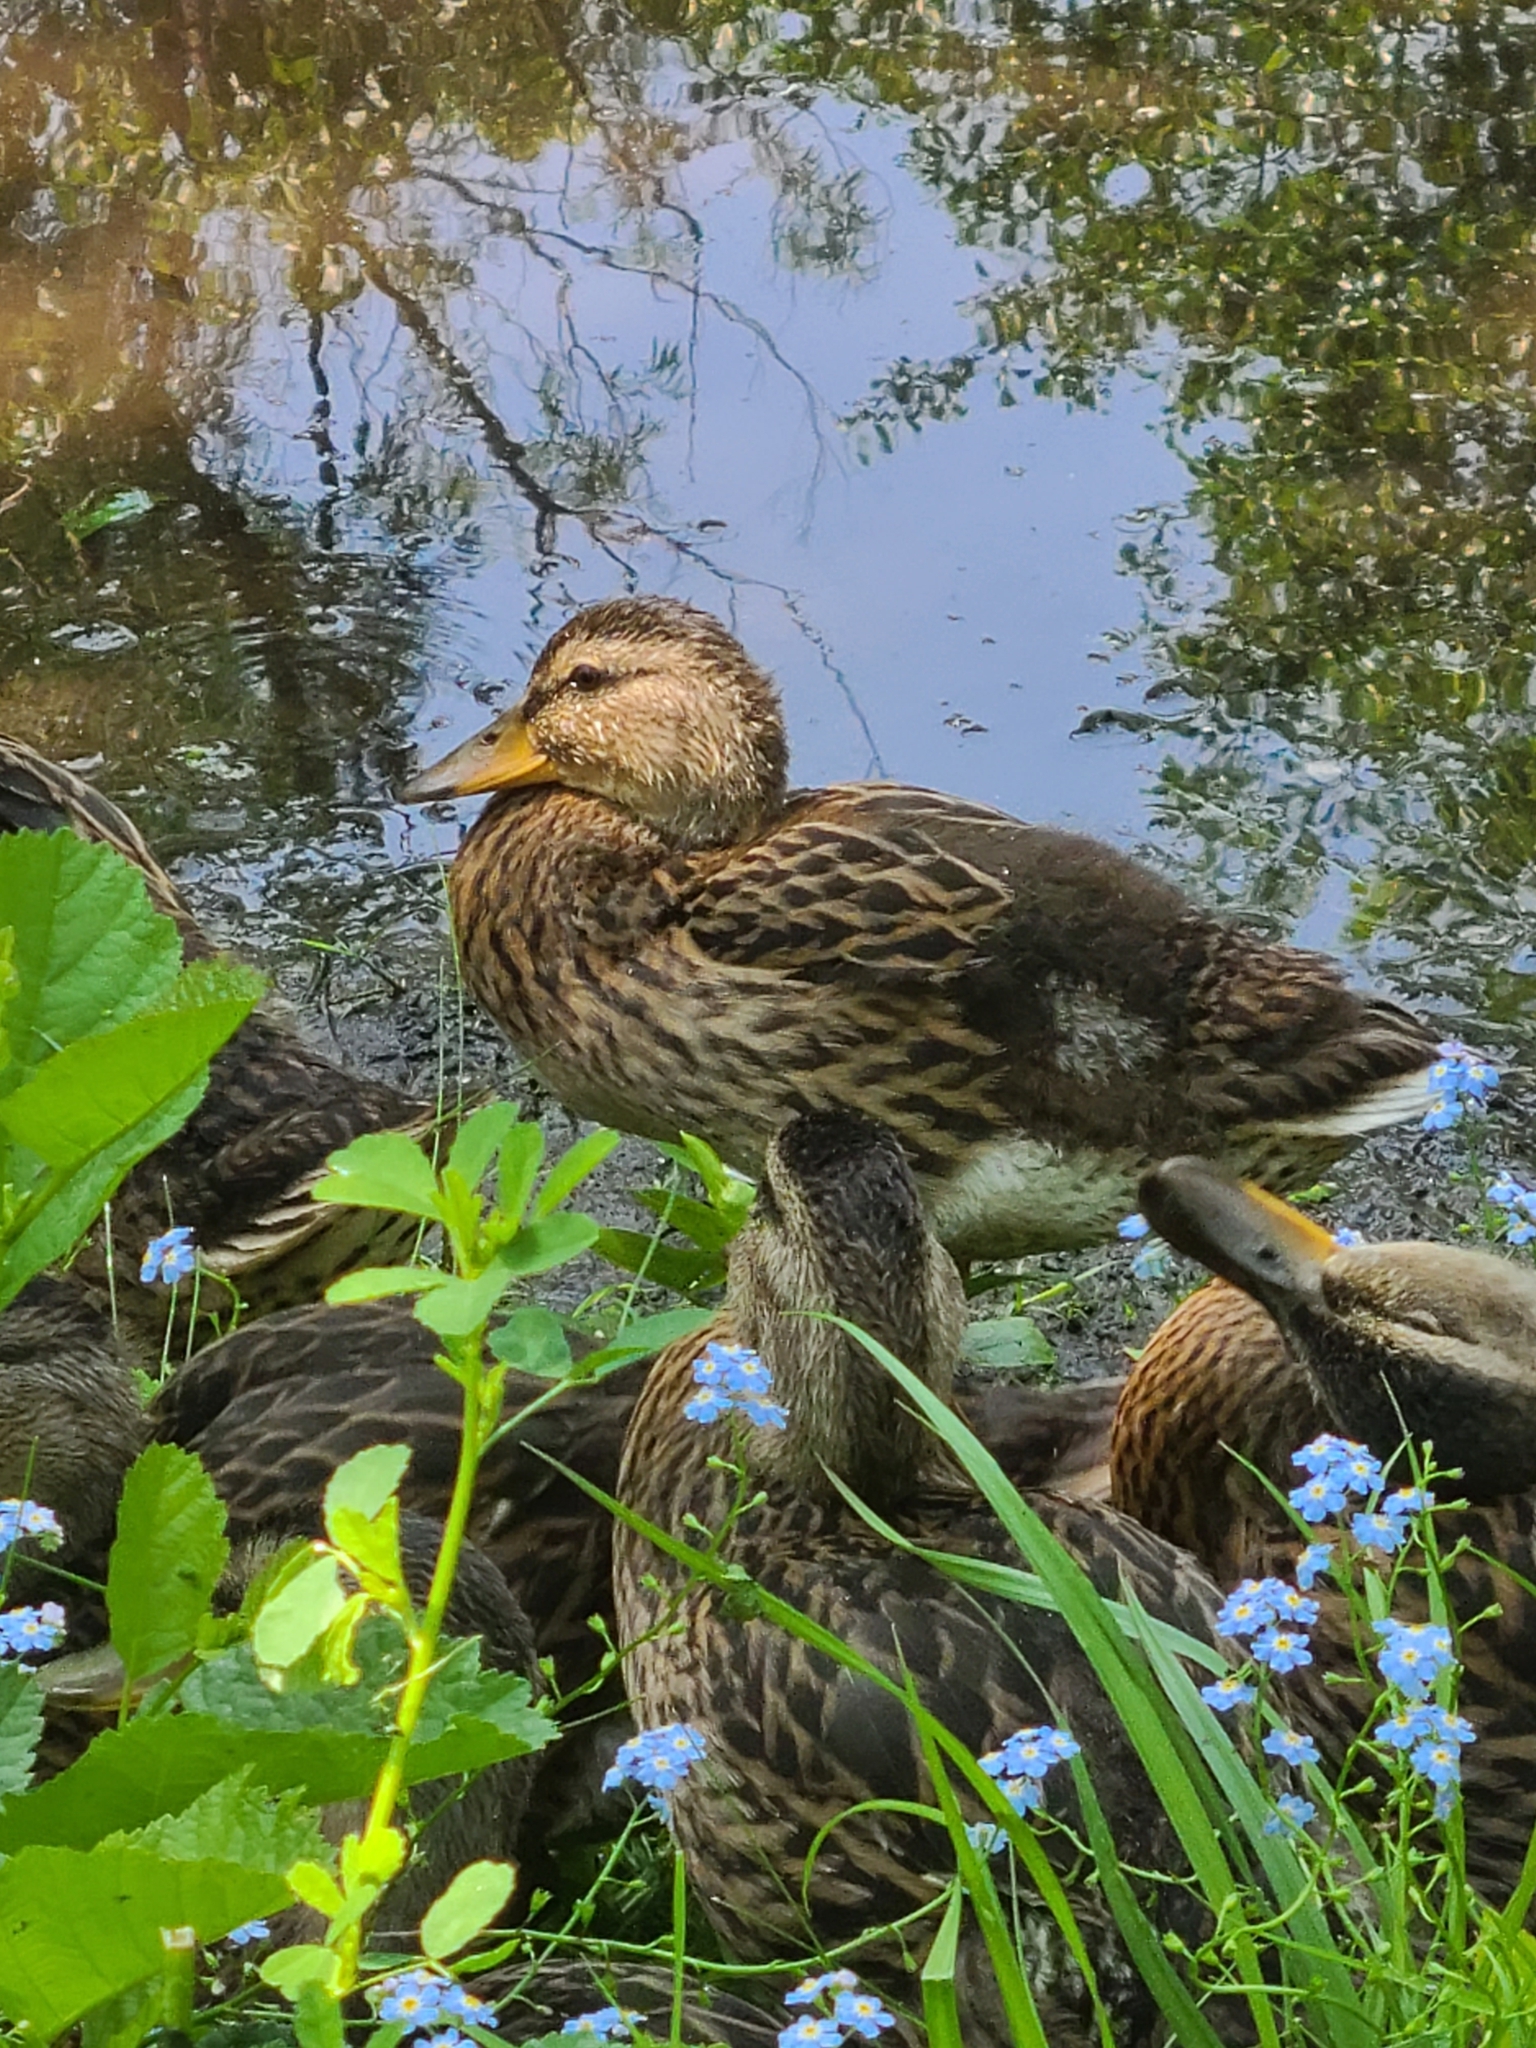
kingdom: Animalia
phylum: Chordata
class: Aves
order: Anseriformes
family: Anatidae
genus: Anas
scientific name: Anas platyrhynchos
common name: Mallard
